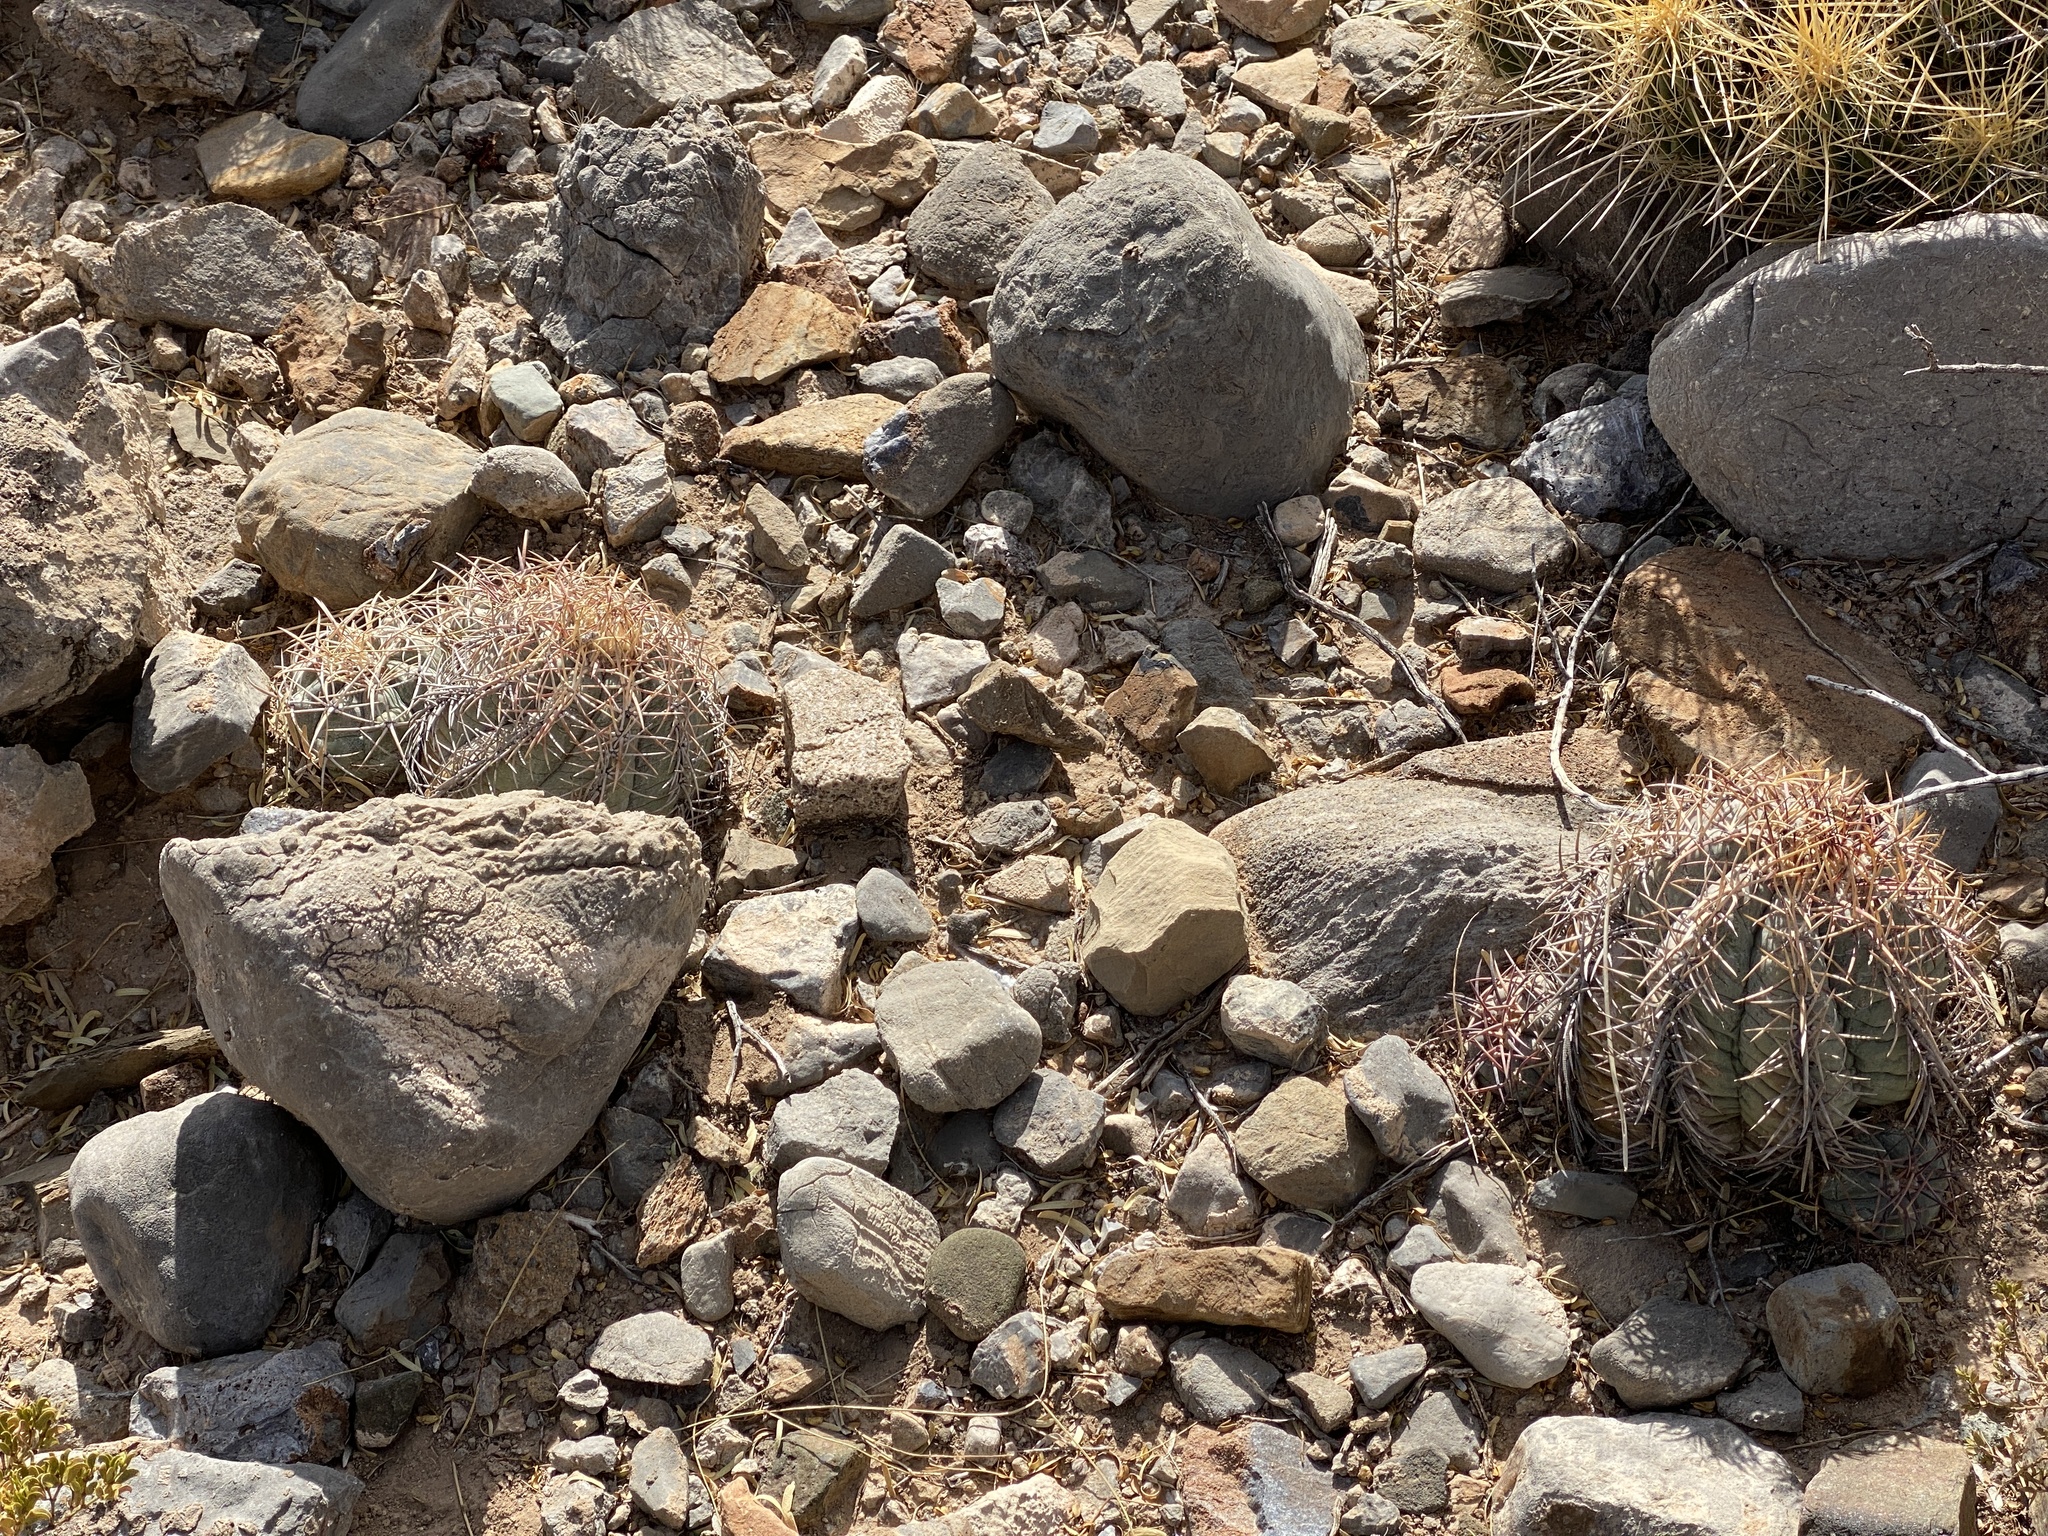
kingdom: Plantae
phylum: Tracheophyta
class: Magnoliopsida
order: Caryophyllales
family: Cactaceae
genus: Echinocactus
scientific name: Echinocactus horizonthalonius
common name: Devilshead
